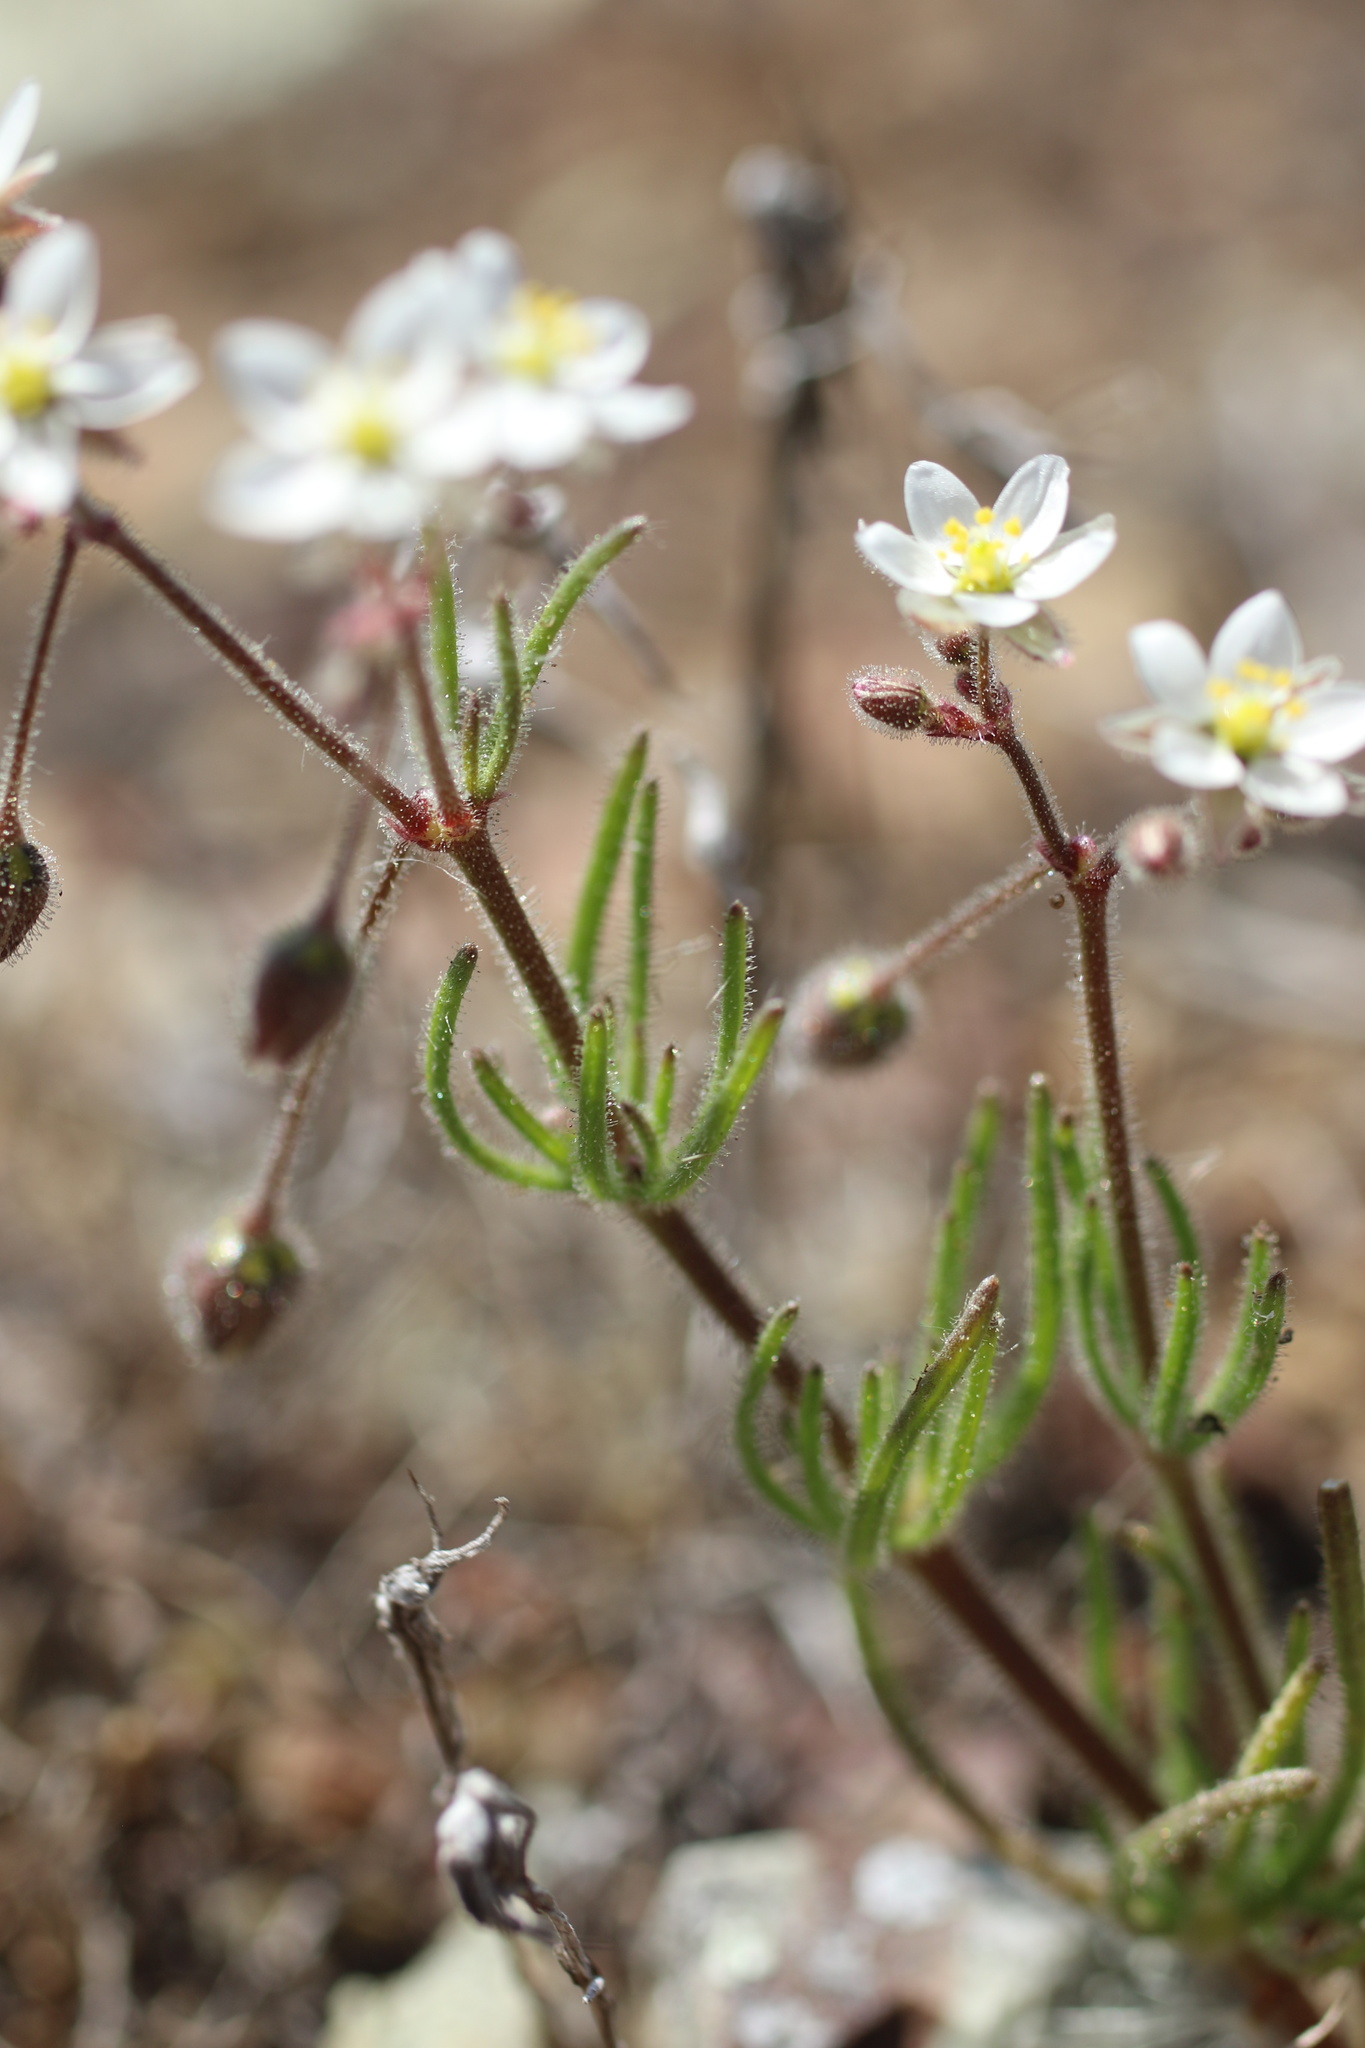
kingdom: Plantae
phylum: Tracheophyta
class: Magnoliopsida
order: Caryophyllales
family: Caryophyllaceae
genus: Spergula
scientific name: Spergula arvensis
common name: Corn spurrey
